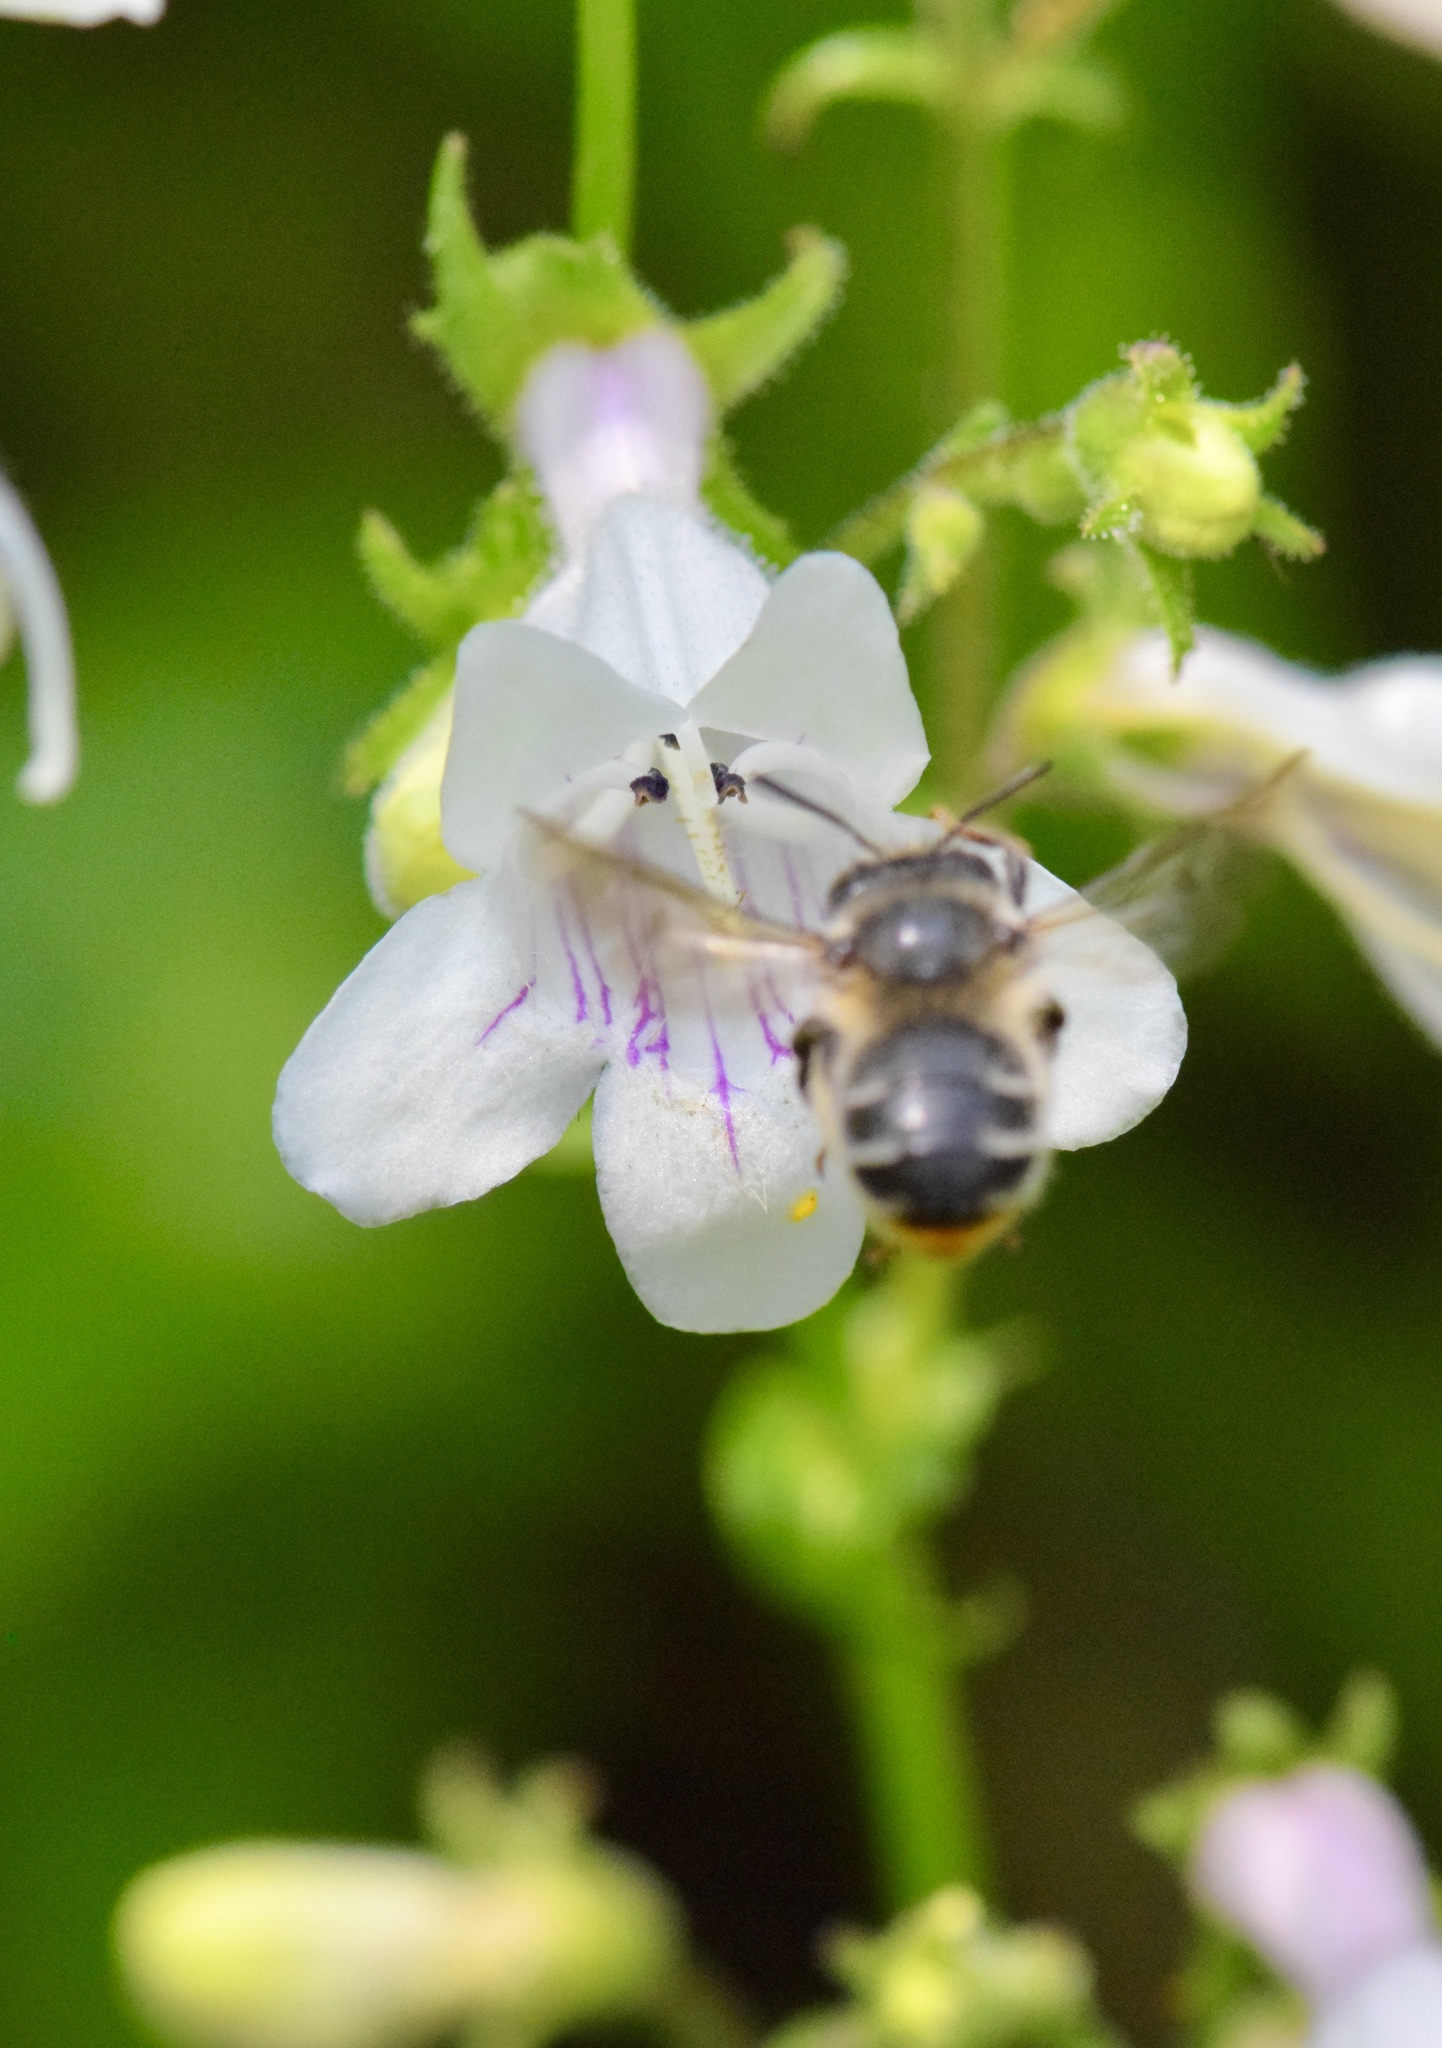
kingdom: Animalia
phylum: Arthropoda
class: Insecta
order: Hymenoptera
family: Apidae
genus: Anthophora
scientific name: Anthophora terminalis
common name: Orange-tipped wood-digger bee
